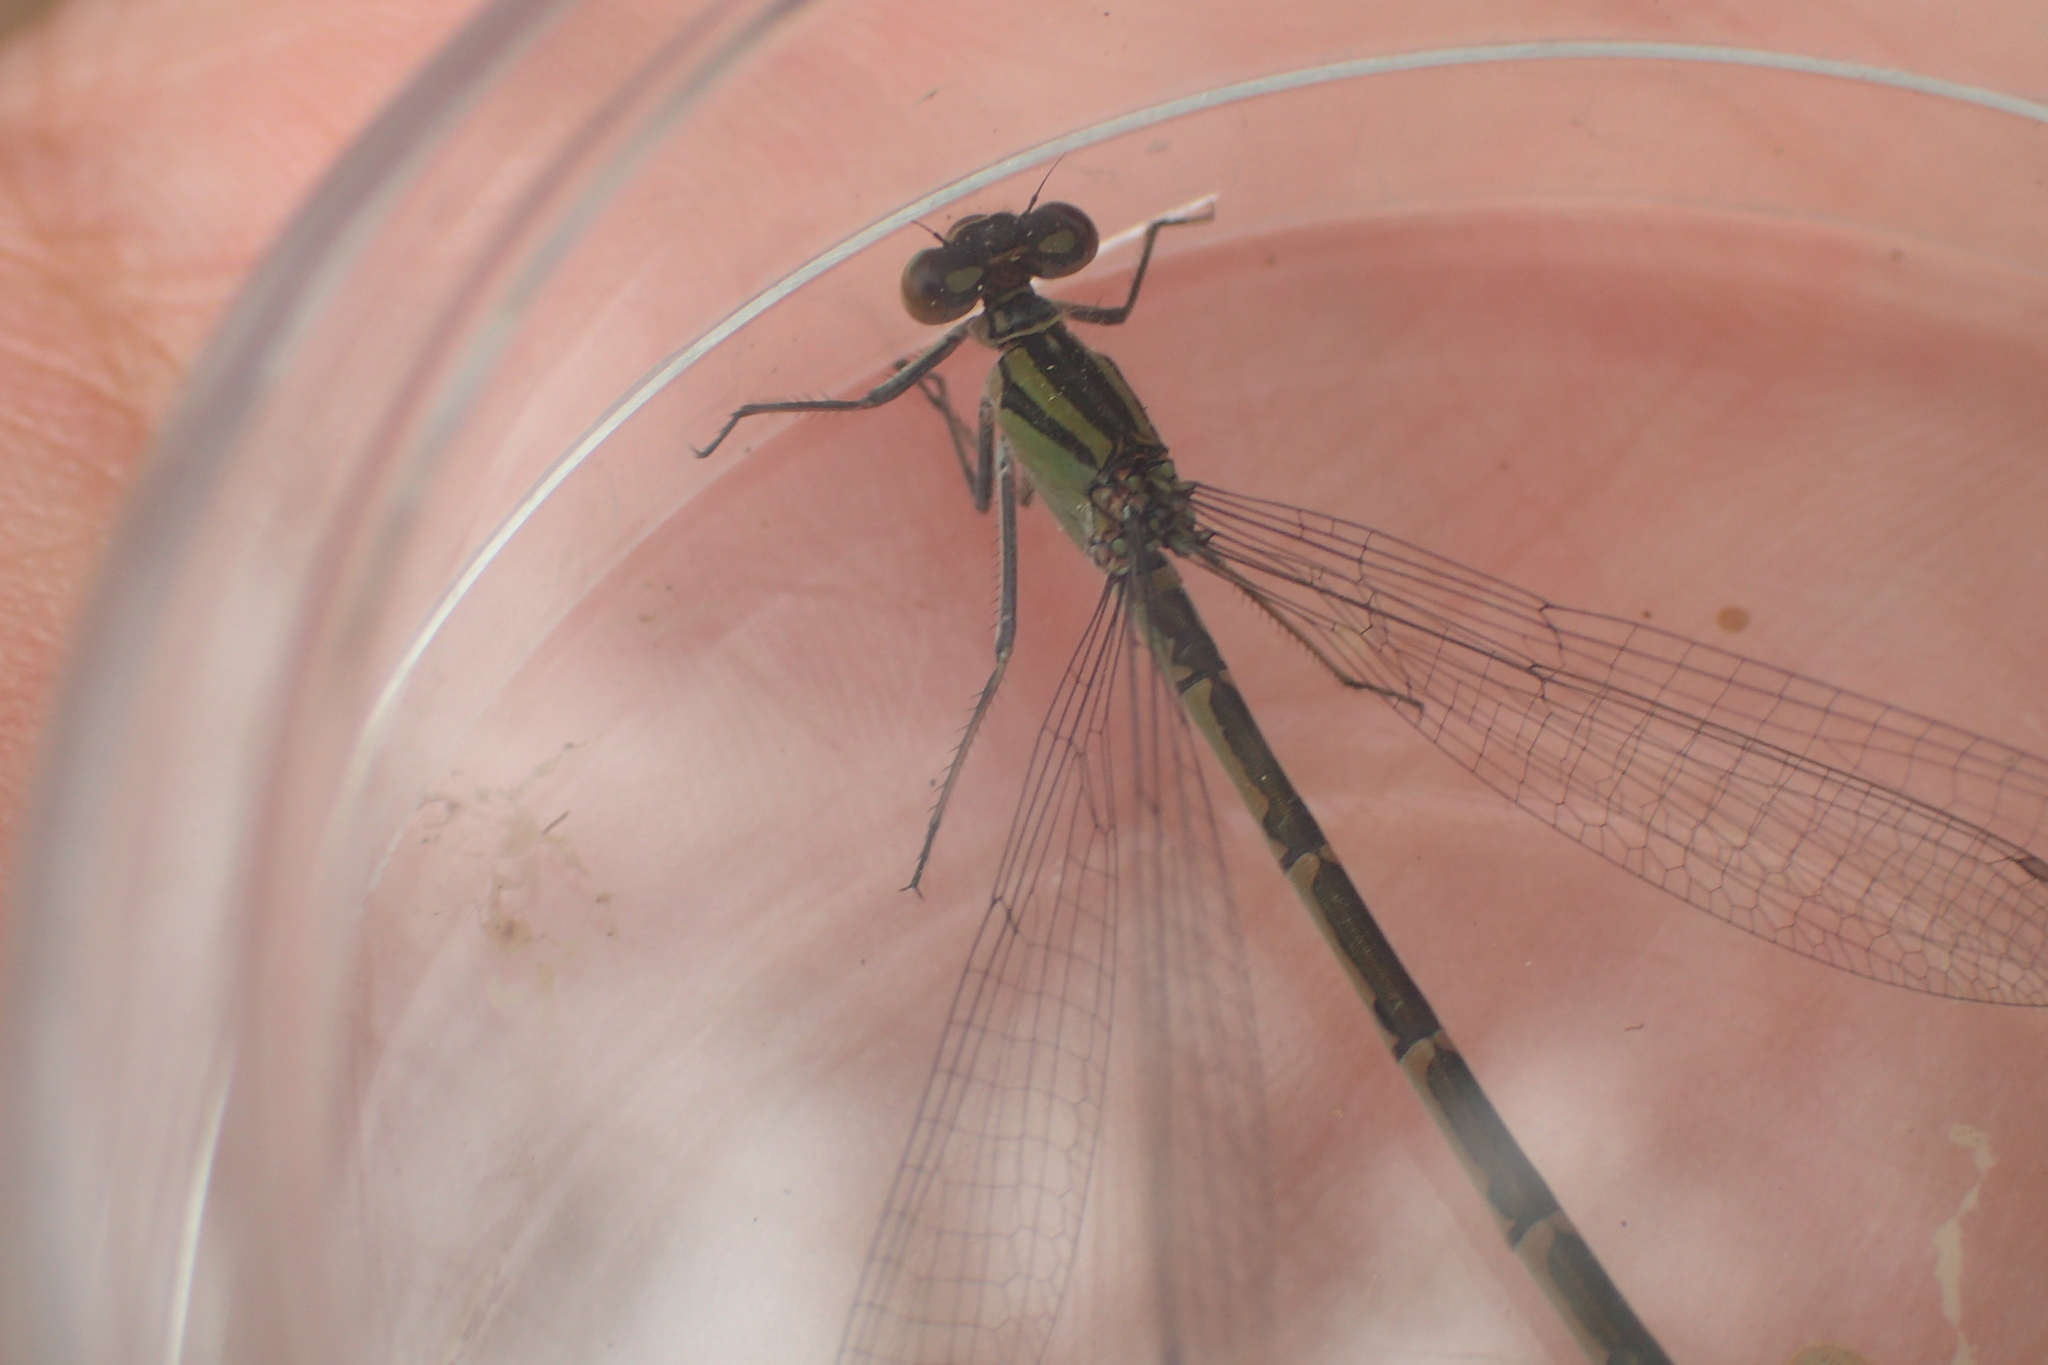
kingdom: Animalia
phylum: Arthropoda
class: Insecta
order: Odonata
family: Coenagrionidae
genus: Enallagma
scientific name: Enallagma cyathigerum
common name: Common blue damselfly
